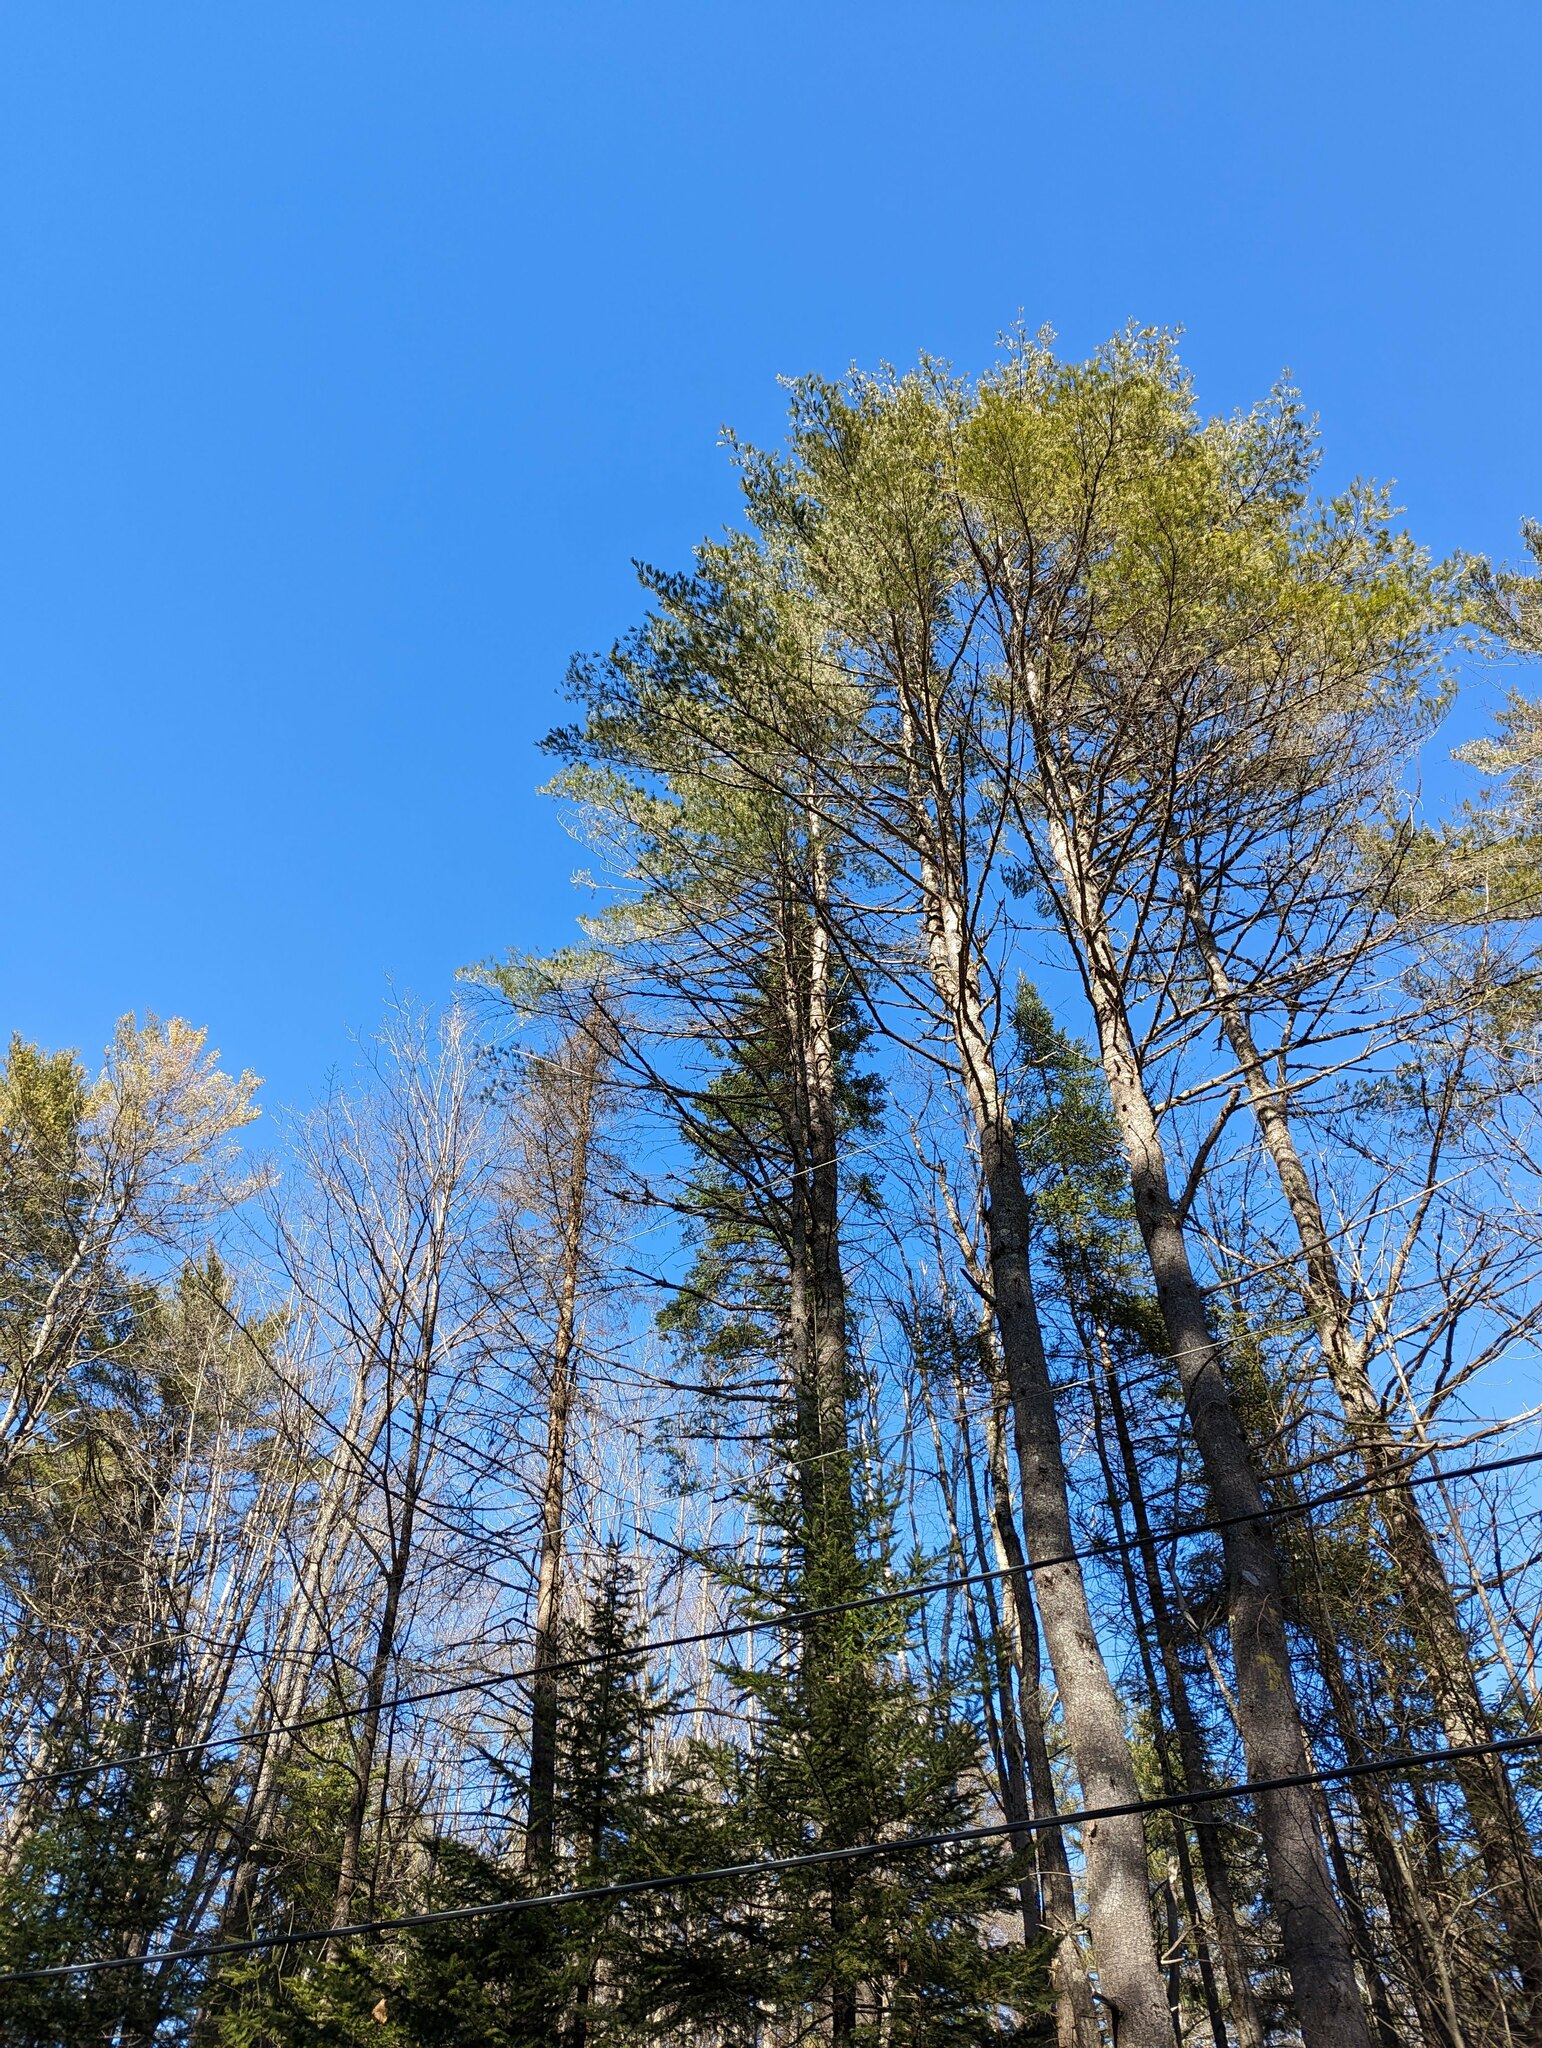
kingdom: Plantae
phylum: Tracheophyta
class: Pinopsida
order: Pinales
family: Pinaceae
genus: Pinus
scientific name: Pinus strobus
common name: Weymouth pine
